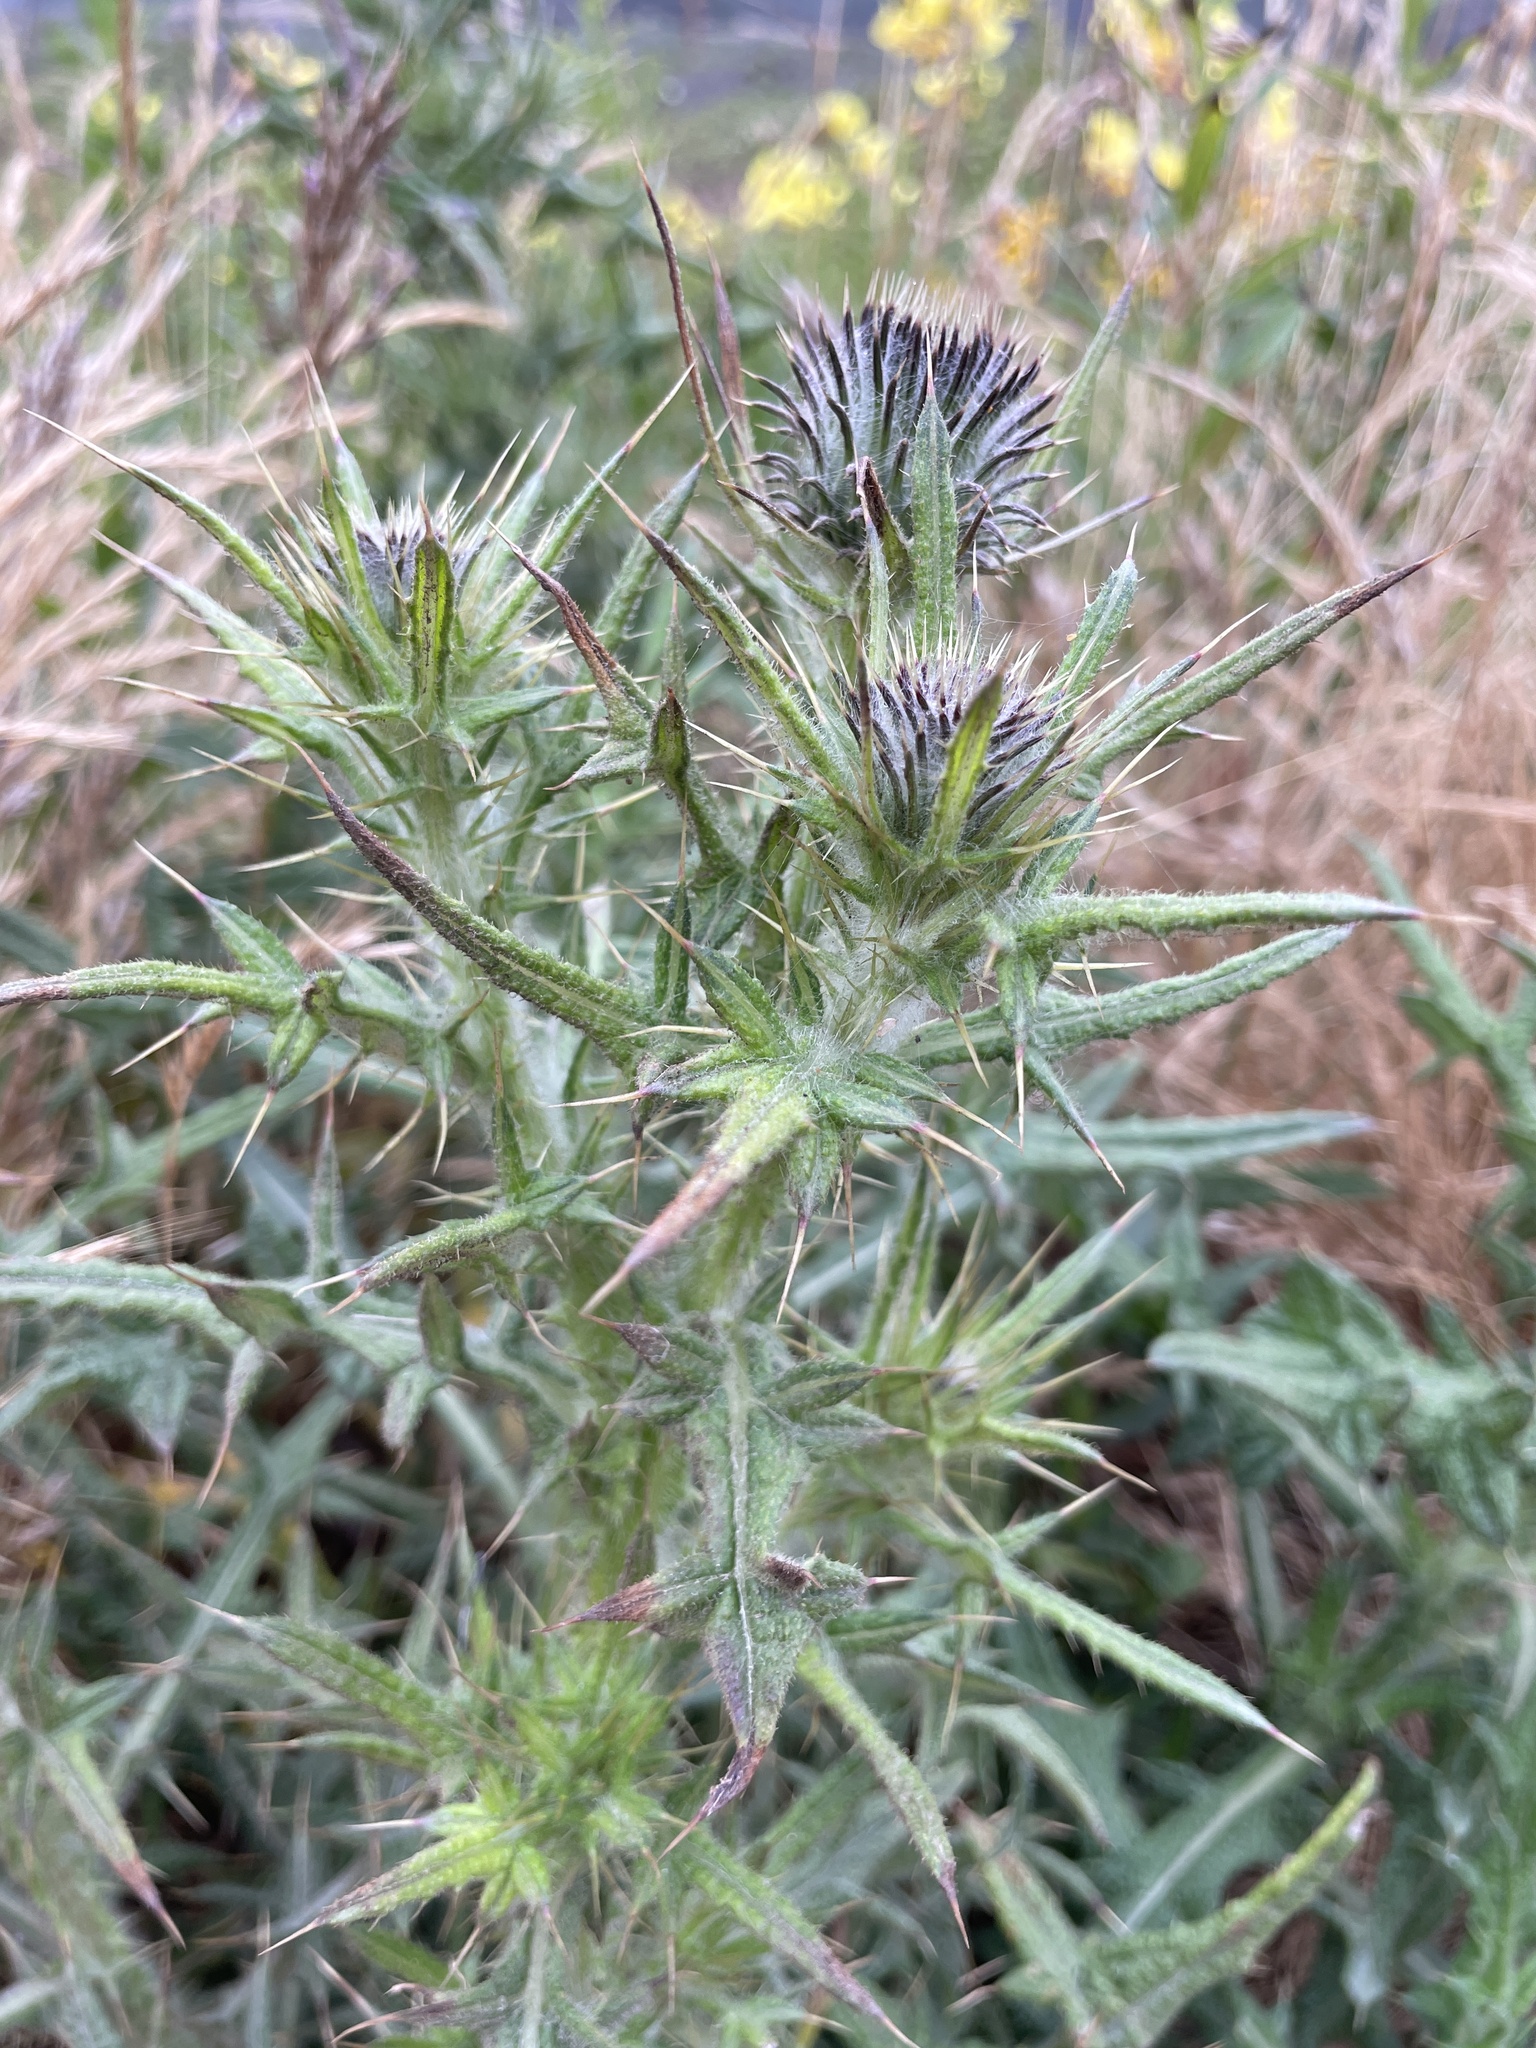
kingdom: Plantae
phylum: Tracheophyta
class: Magnoliopsida
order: Asterales
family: Asteraceae
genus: Cirsium
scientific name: Cirsium vulgare
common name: Bull thistle
